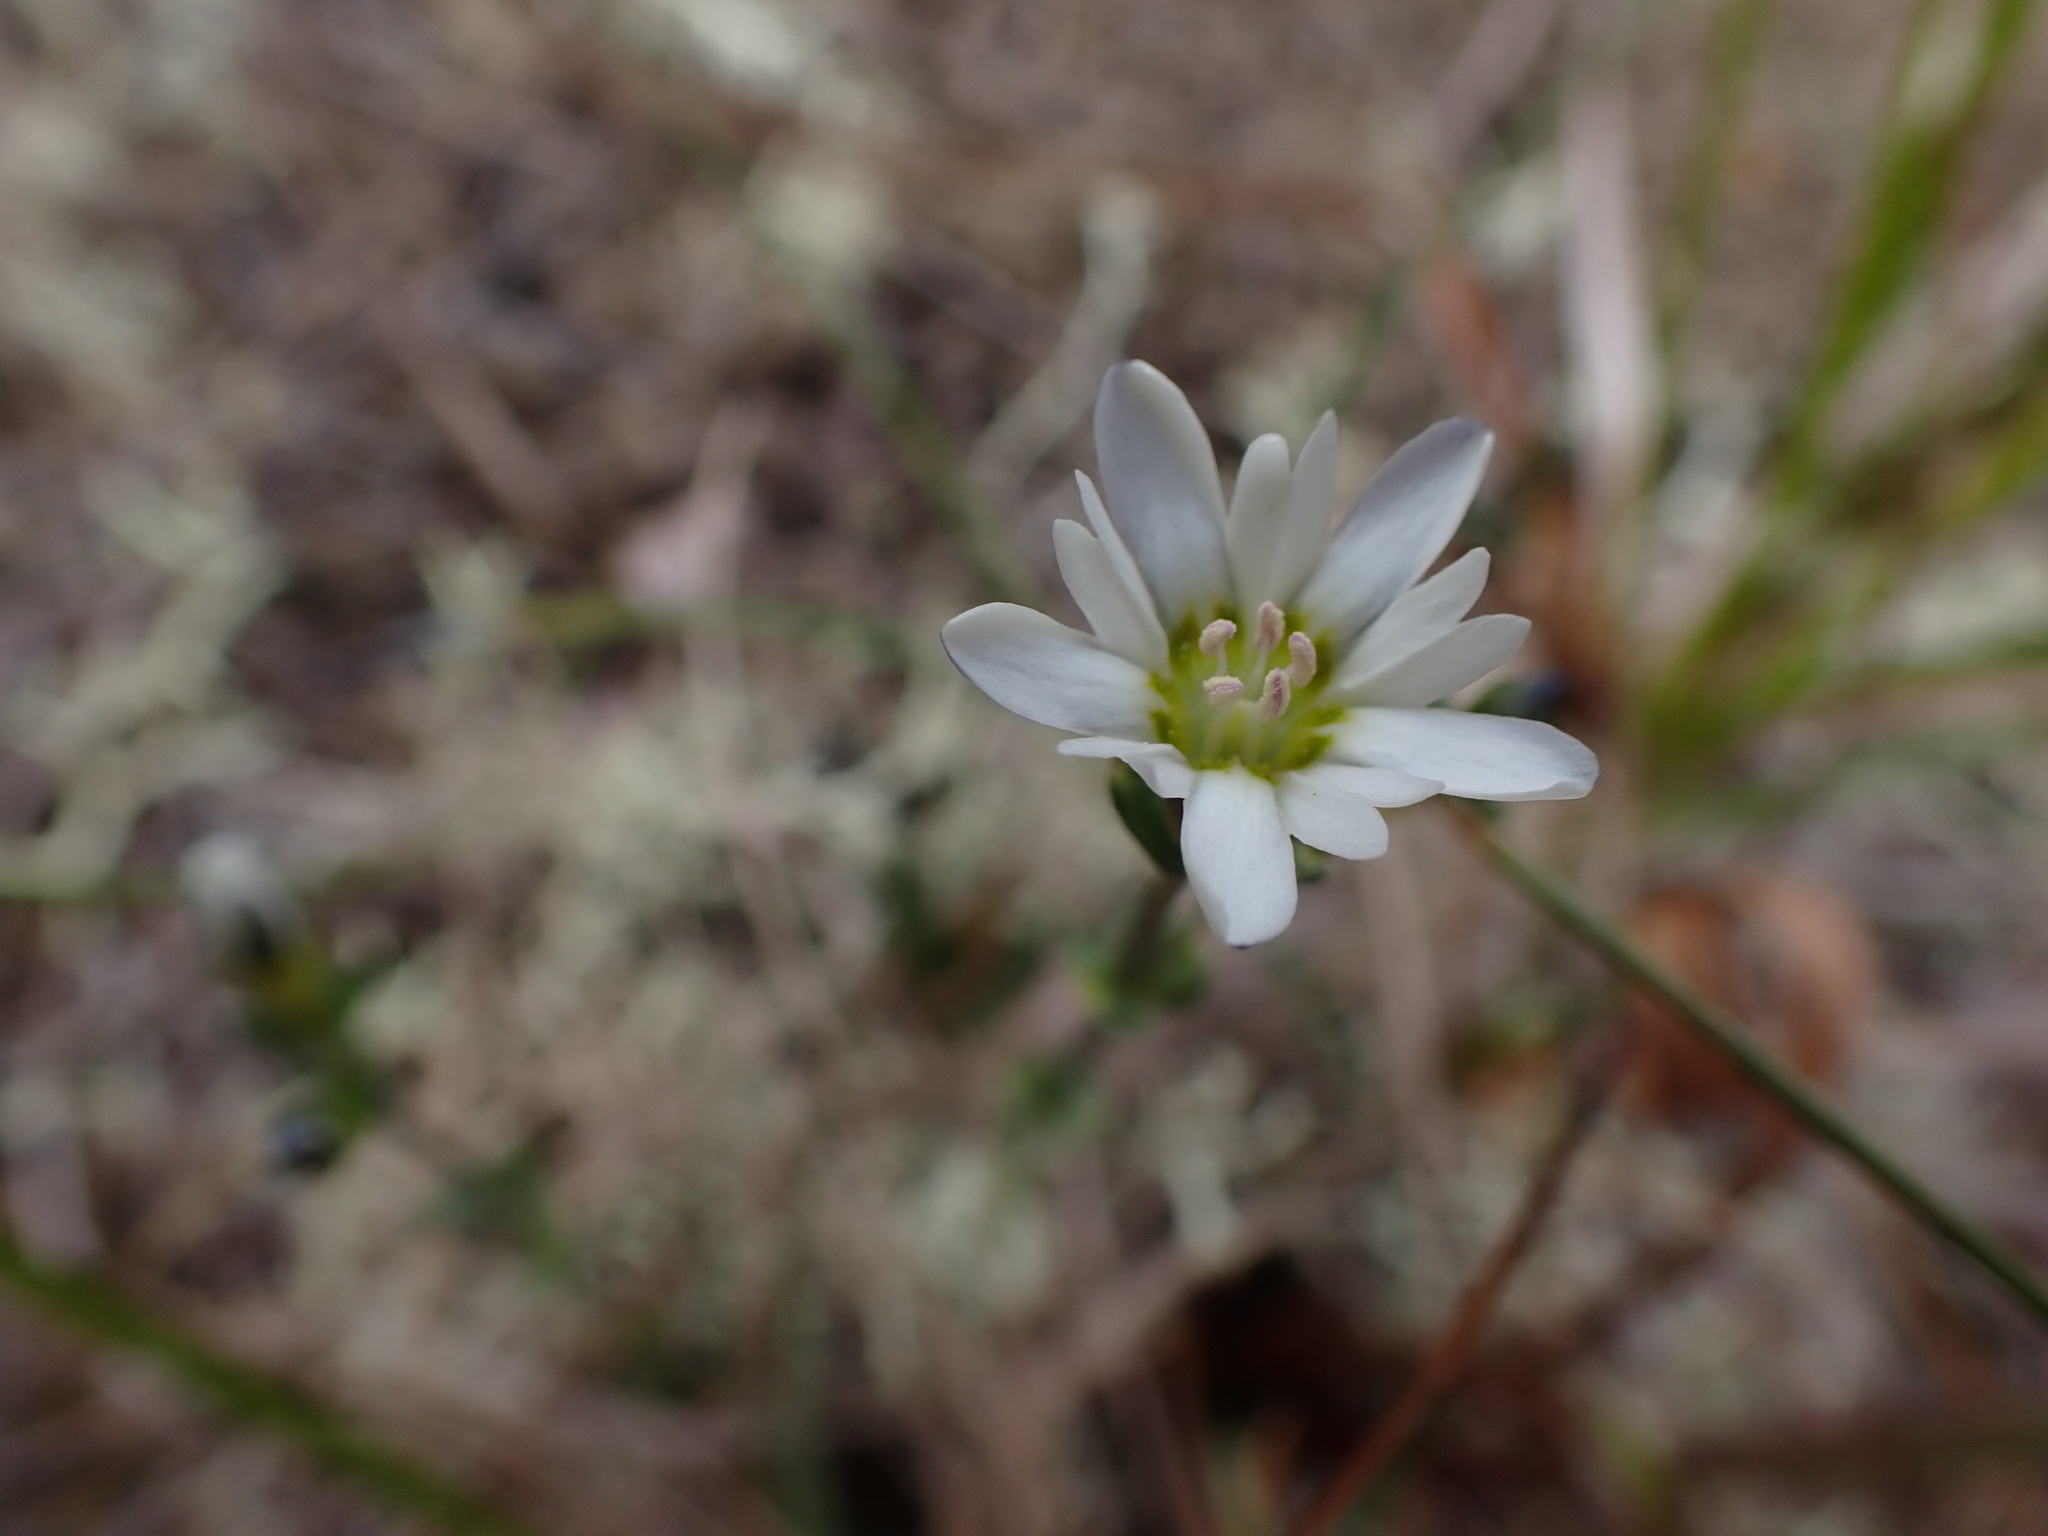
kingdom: Plantae
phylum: Tracheophyta
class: Magnoliopsida
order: Gentianales
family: Gentianaceae
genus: Gentiana
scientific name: Gentiana douglasiana
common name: Swamp gentian
